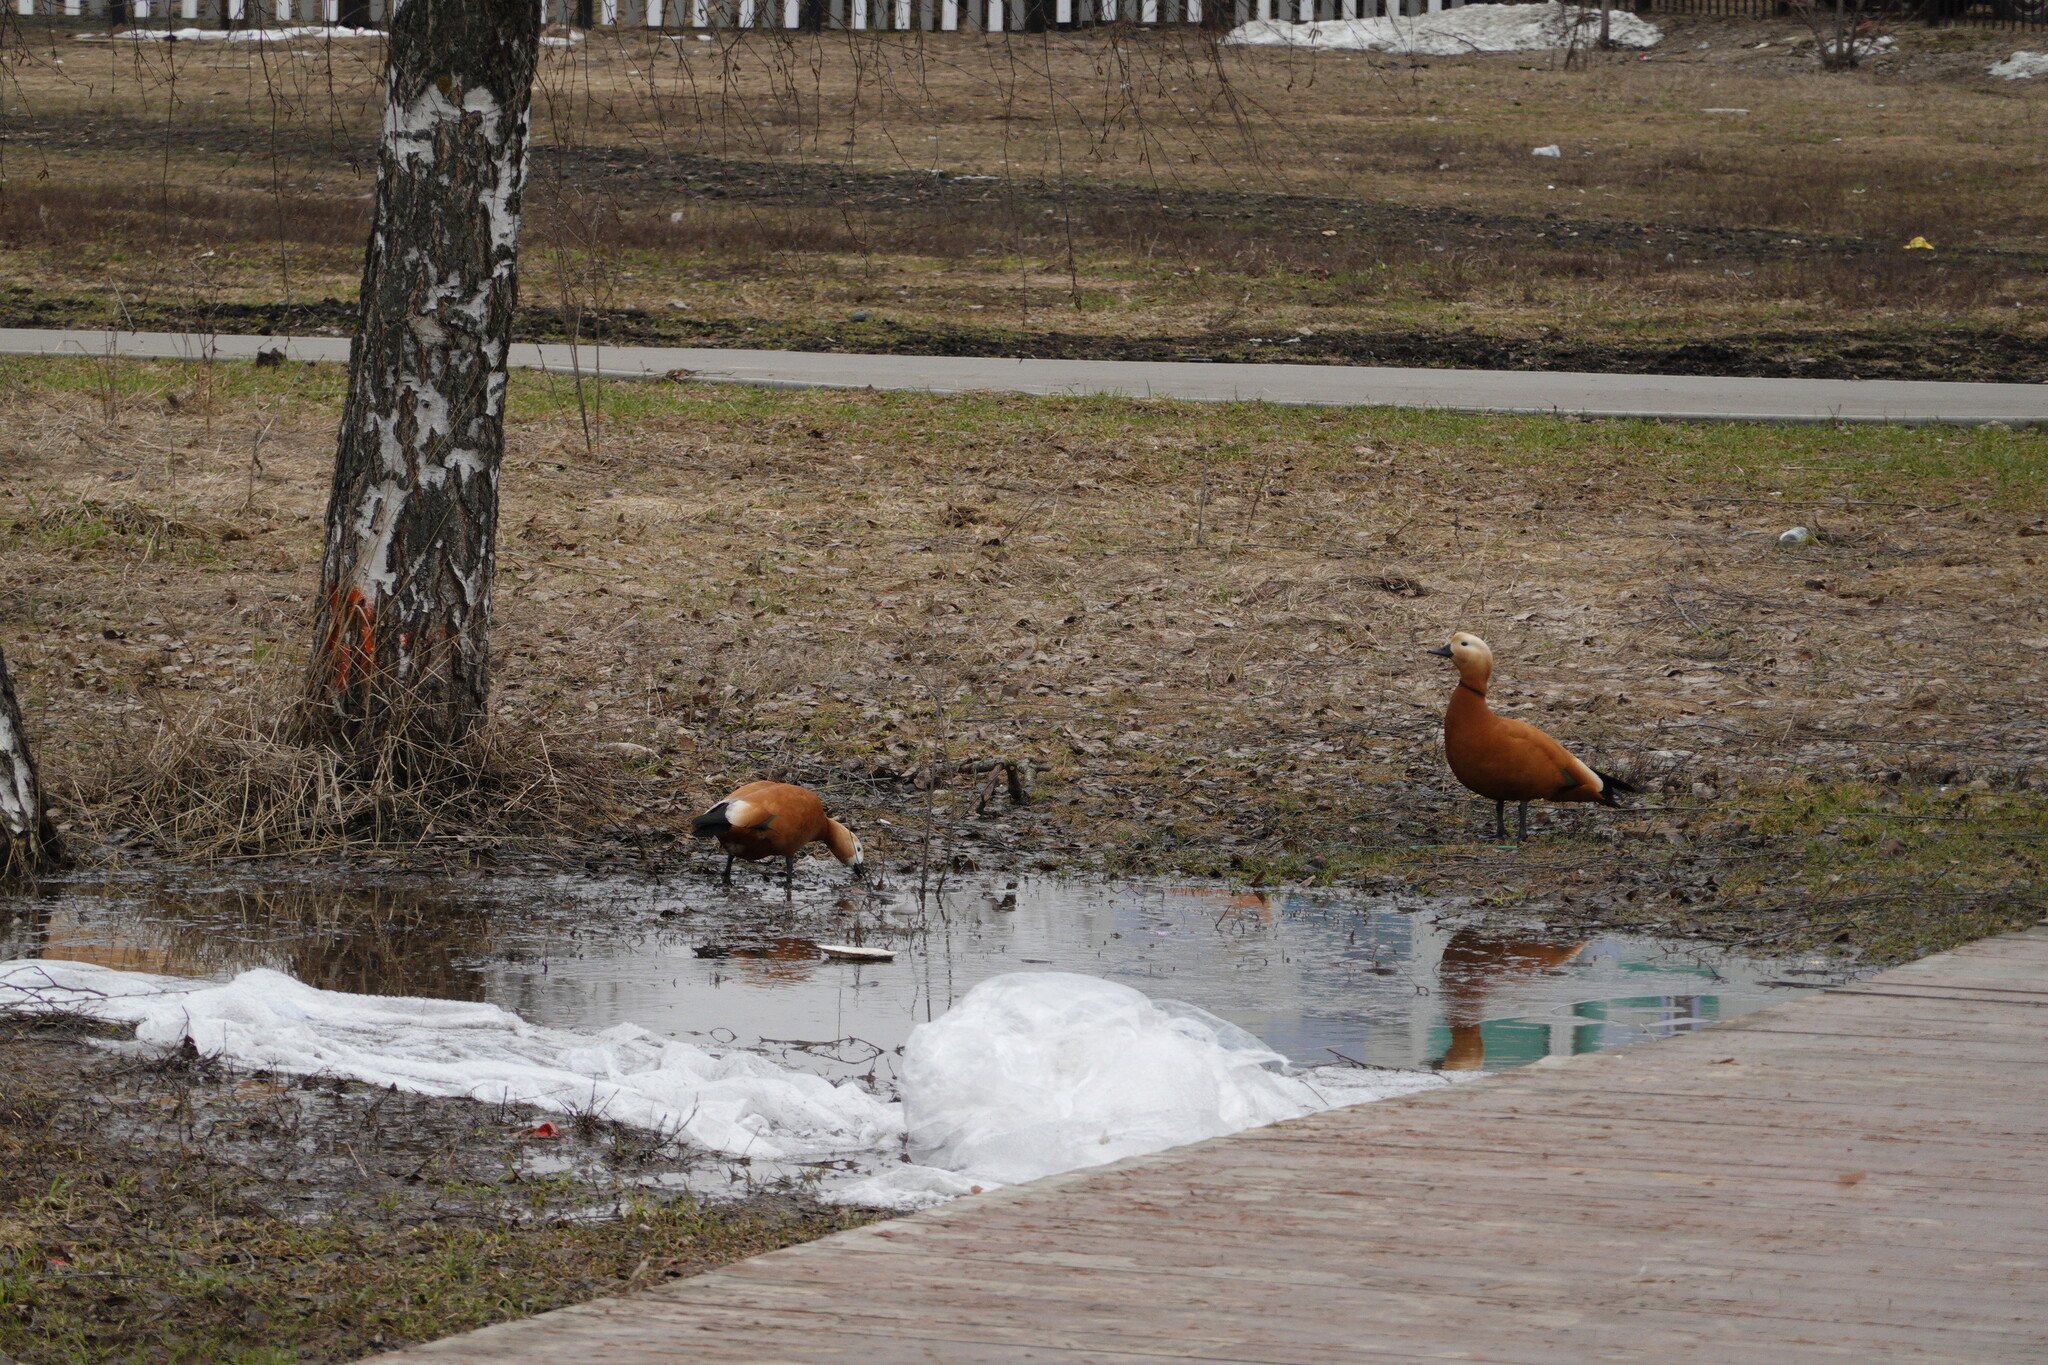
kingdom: Animalia
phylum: Chordata
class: Aves
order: Anseriformes
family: Anatidae
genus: Tadorna
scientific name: Tadorna ferruginea
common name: Ruddy shelduck
